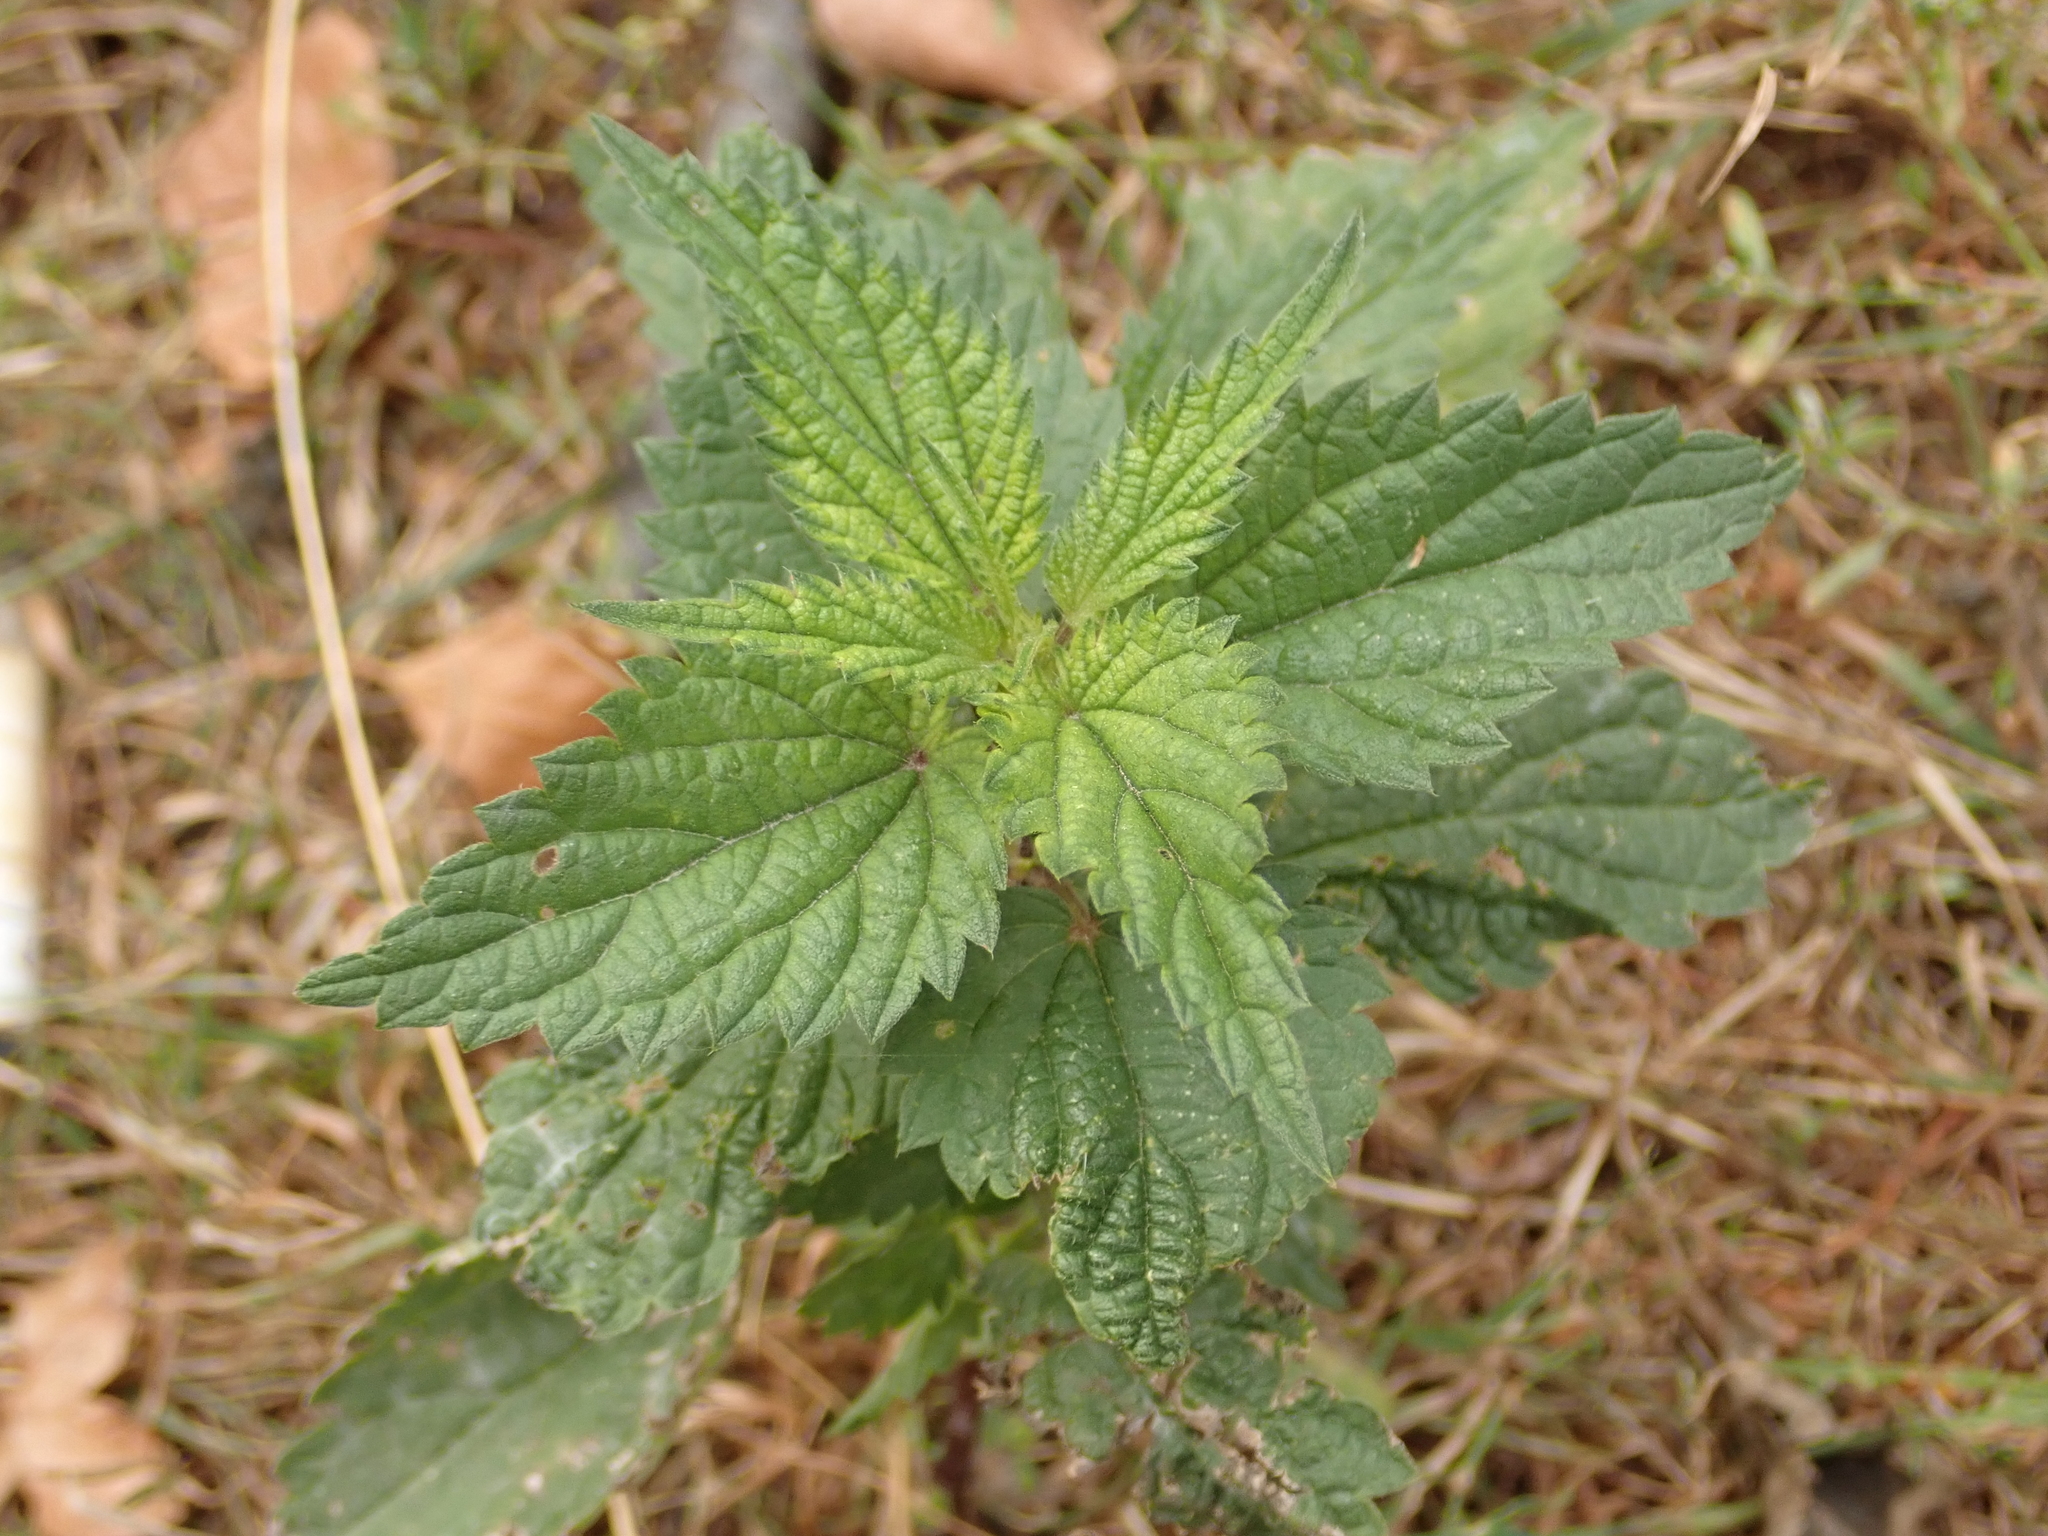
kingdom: Plantae
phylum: Tracheophyta
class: Magnoliopsida
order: Rosales
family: Urticaceae
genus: Urtica
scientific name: Urtica dioica
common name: Common nettle
